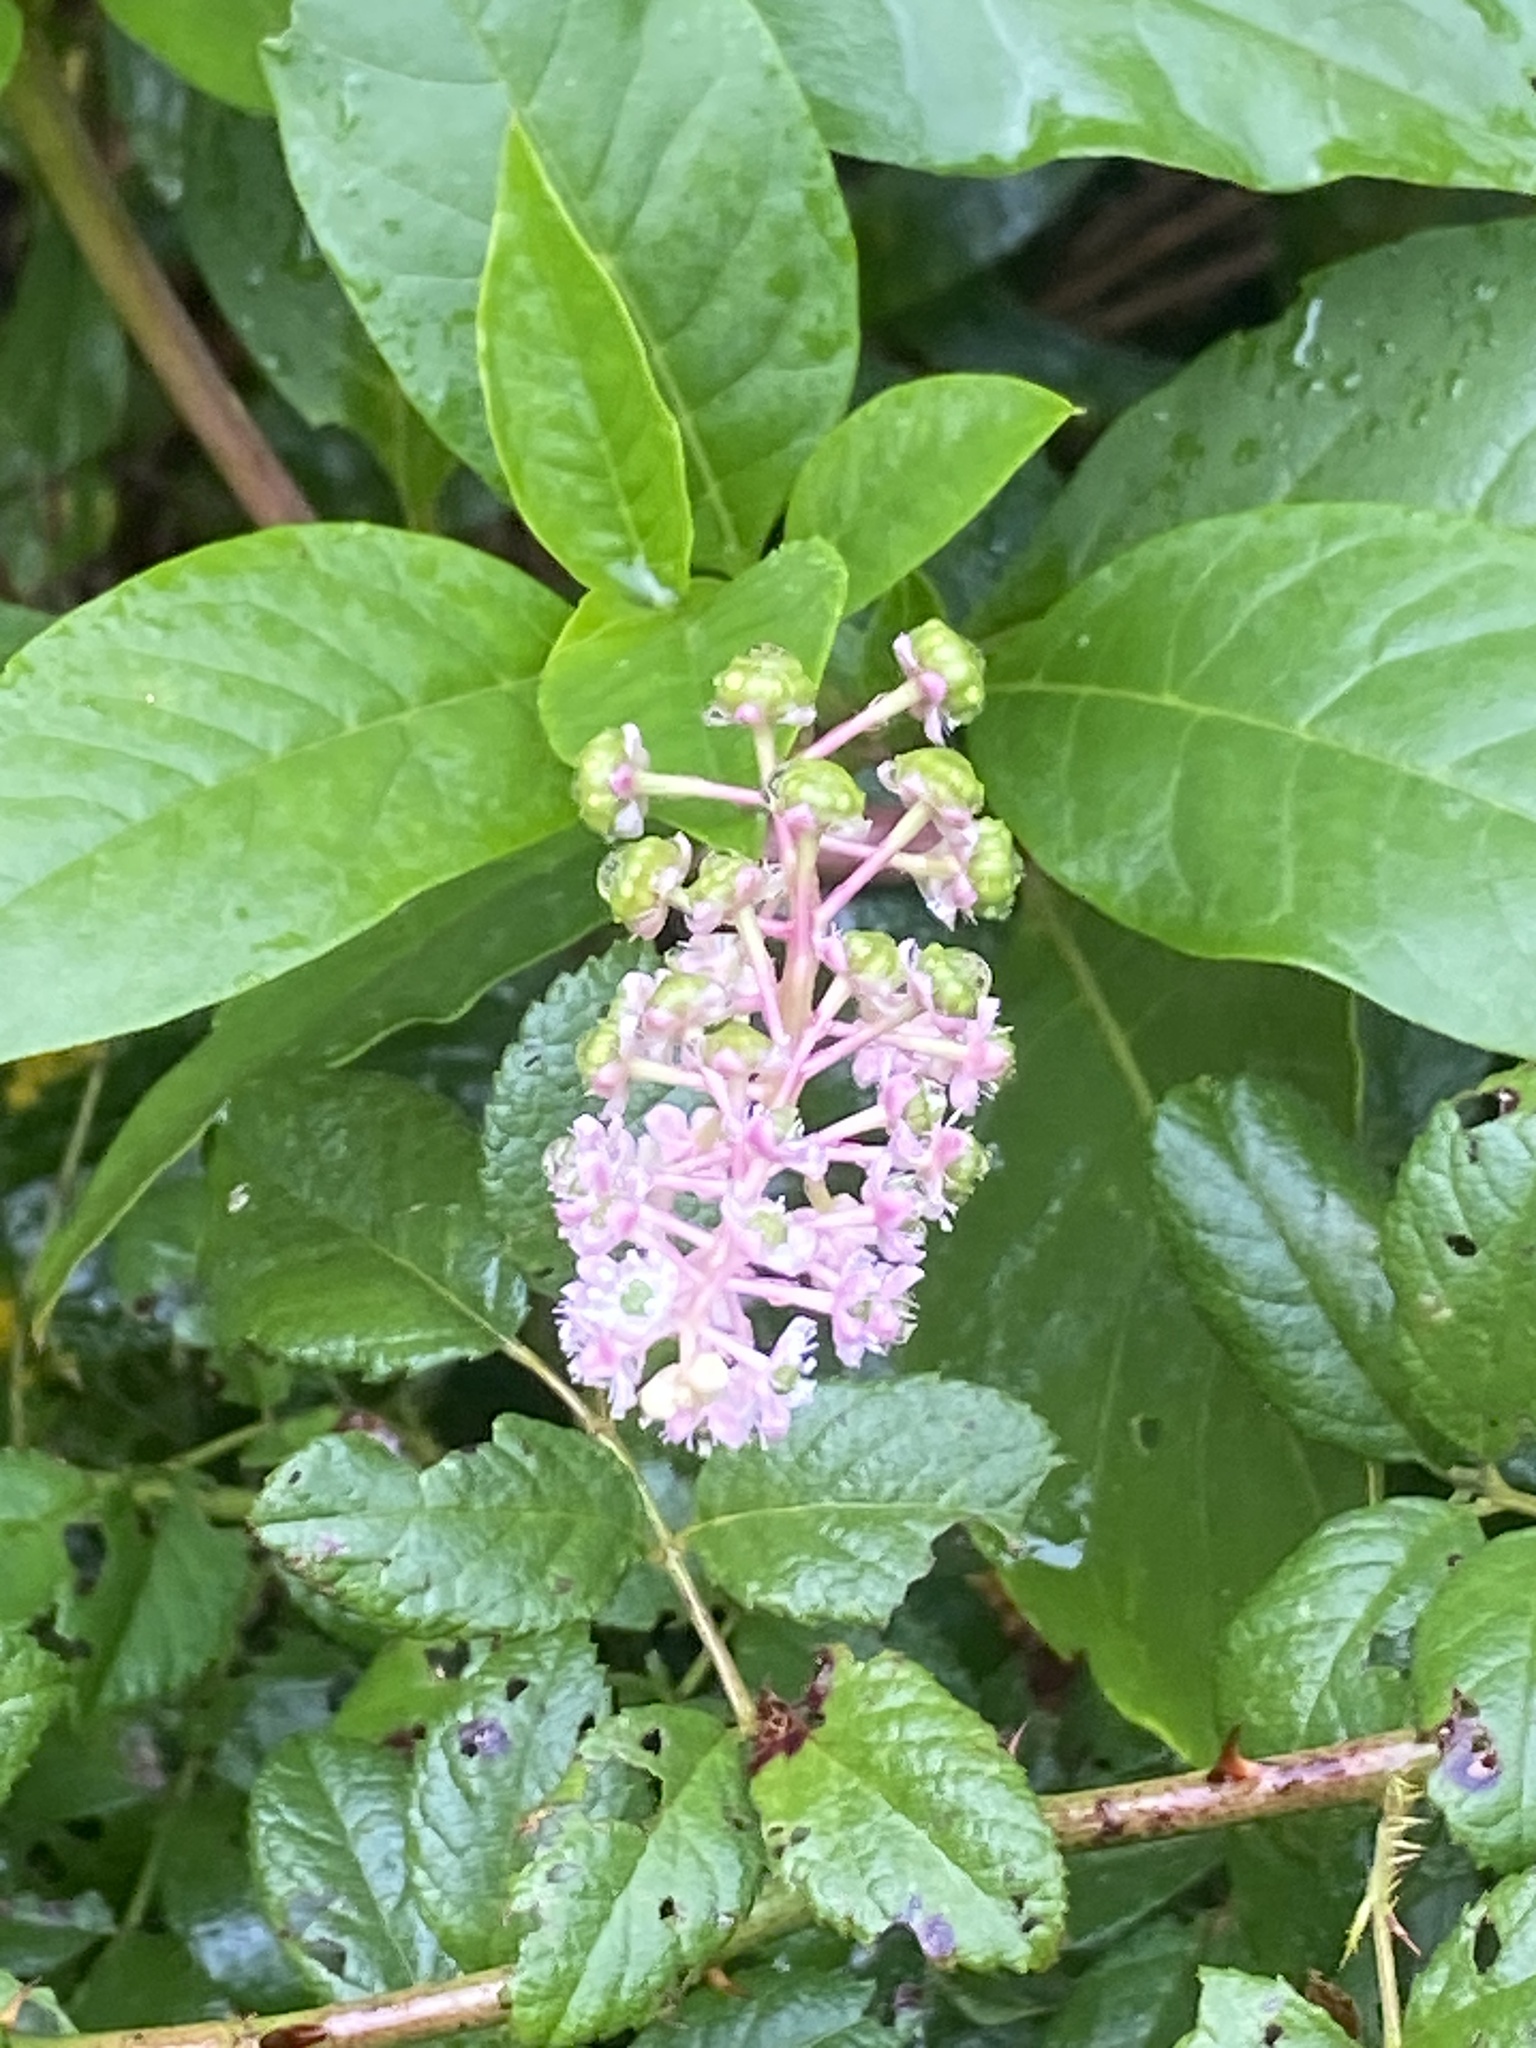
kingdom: Plantae
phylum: Tracheophyta
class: Magnoliopsida
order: Caryophyllales
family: Phytolaccaceae
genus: Phytolacca
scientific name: Phytolacca americana
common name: American pokeweed
